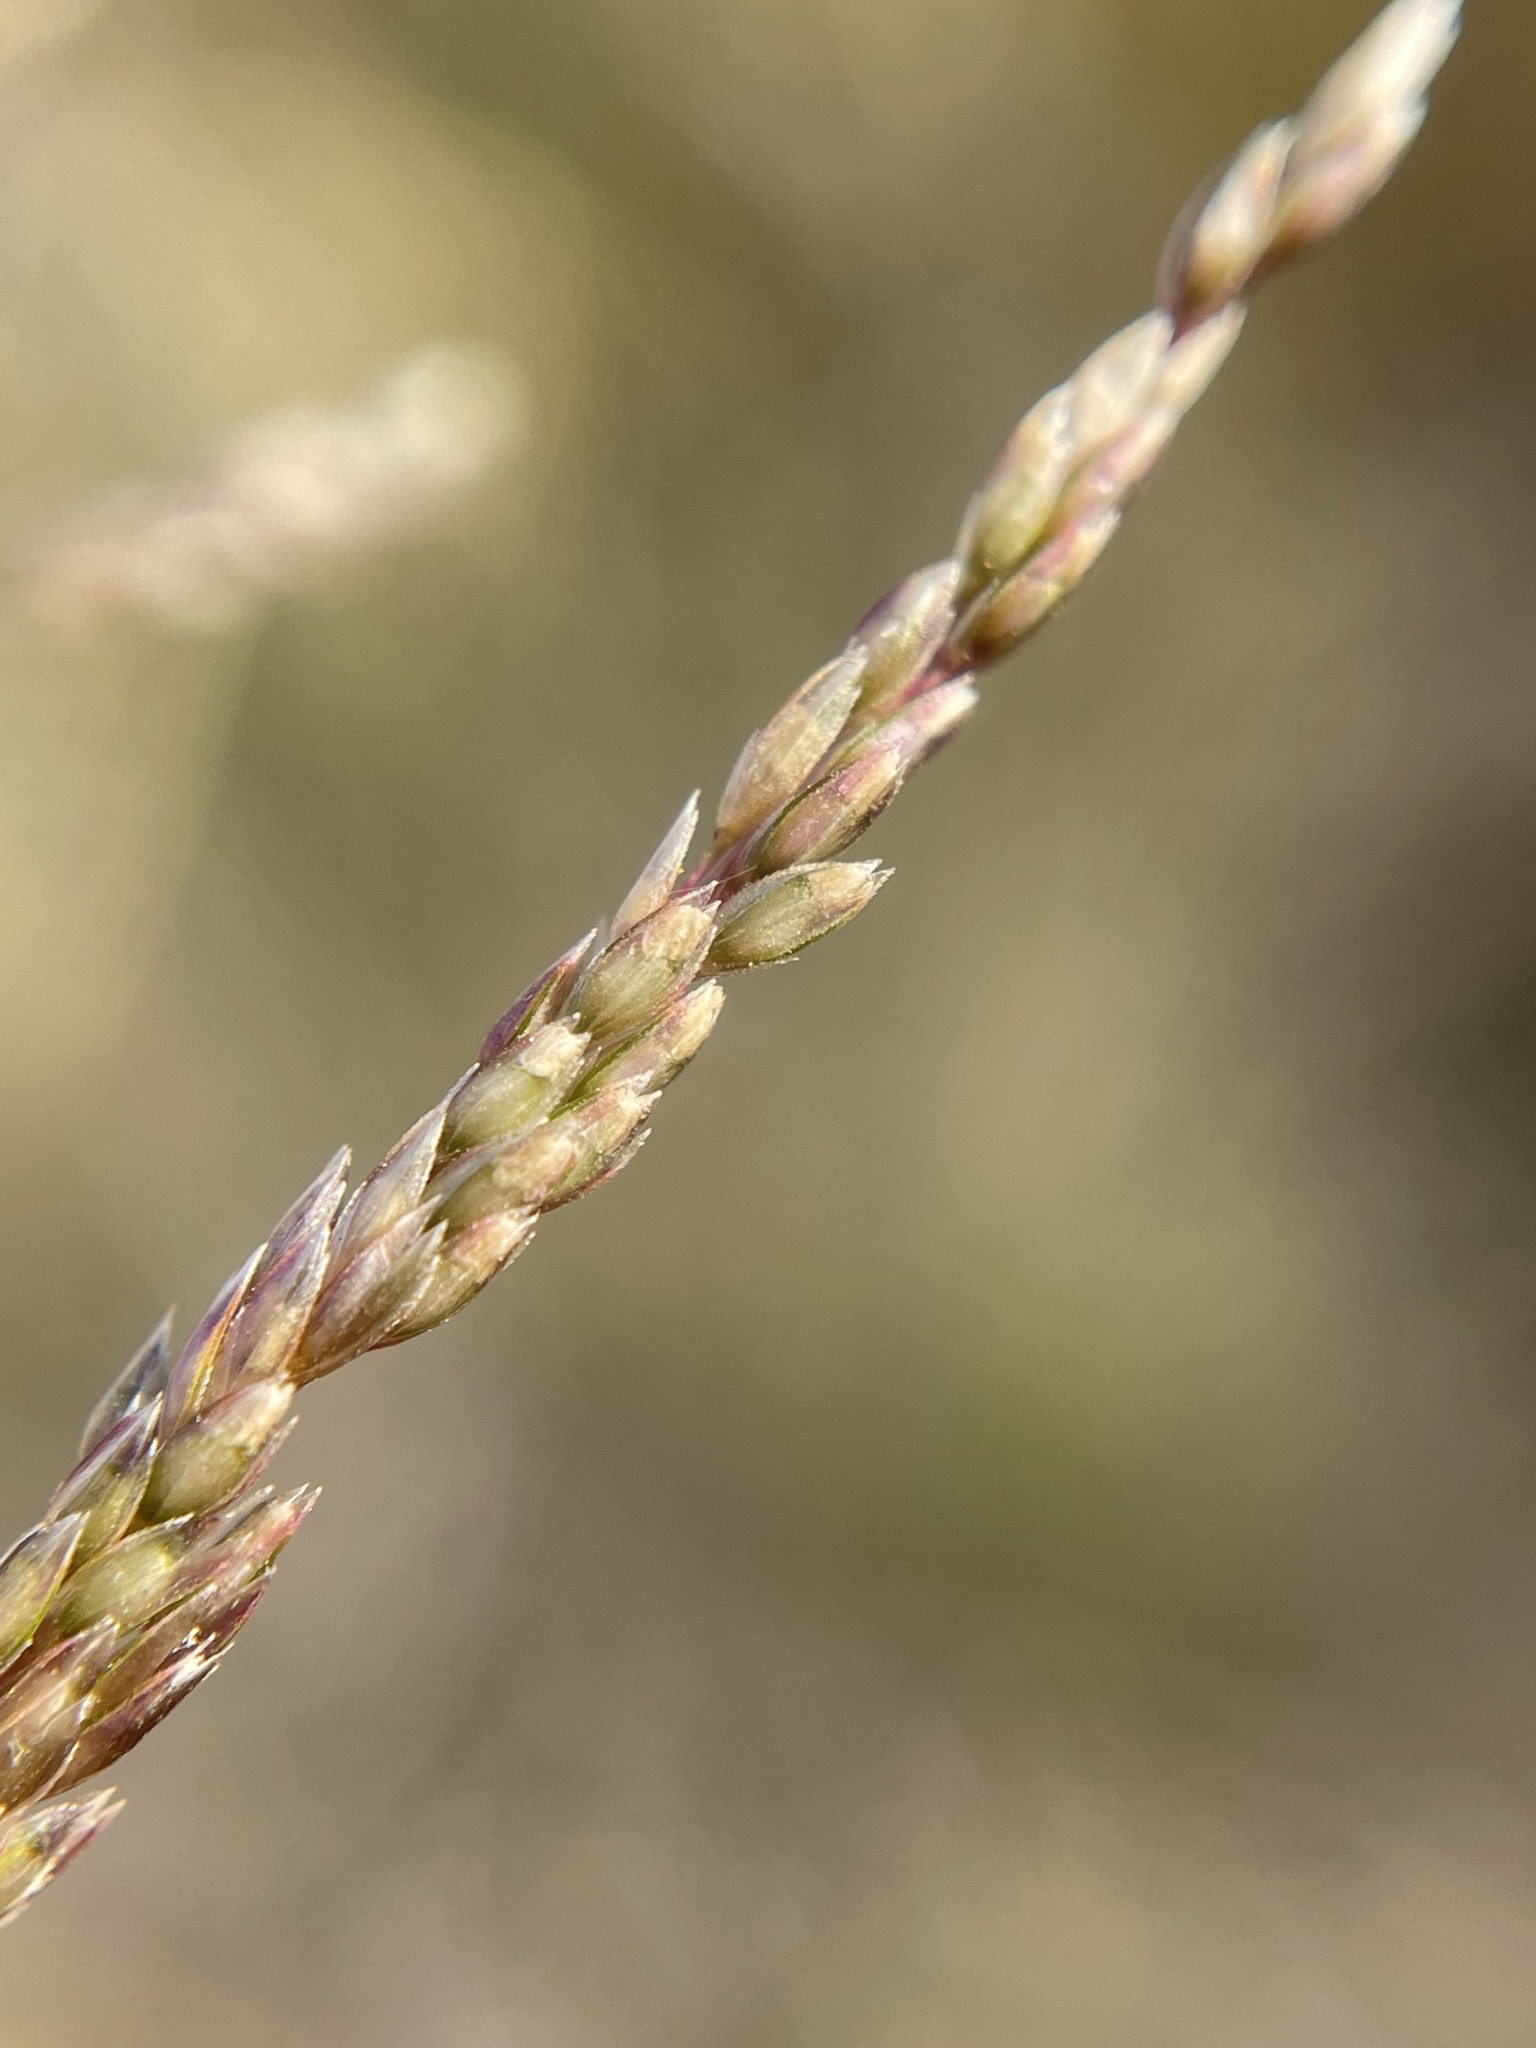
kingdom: Plantae
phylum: Tracheophyta
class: Liliopsida
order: Poales
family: Poaceae
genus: Sporobolus
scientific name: Sporobolus cryptandrus
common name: Sand dropseed
